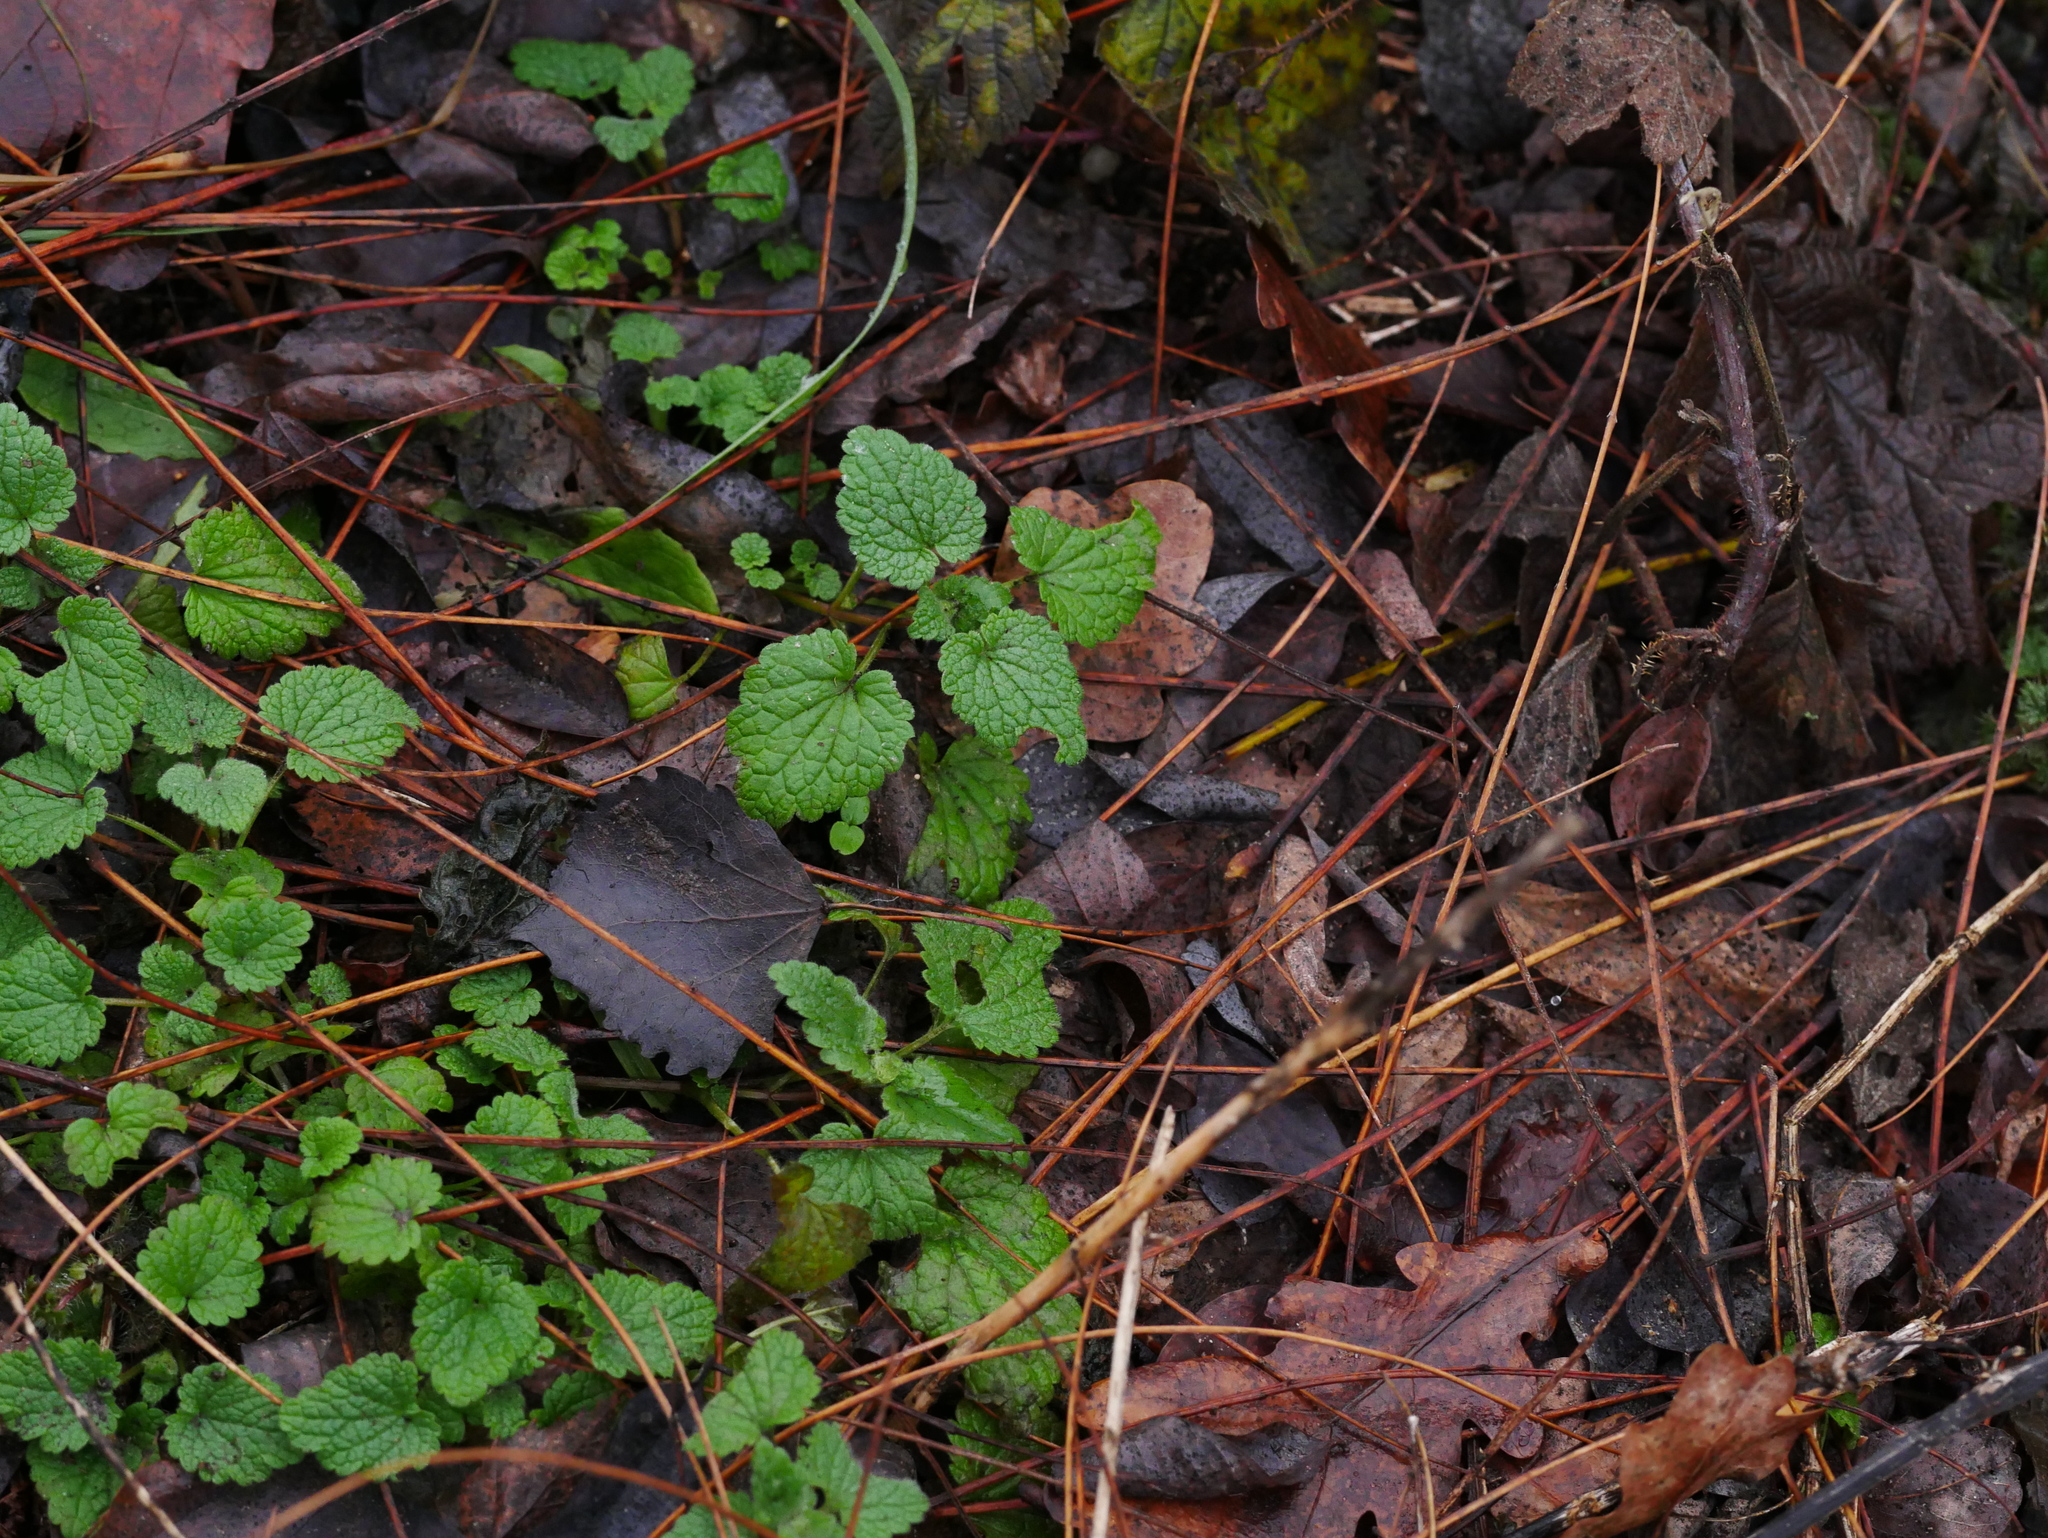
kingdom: Plantae
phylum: Tracheophyta
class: Magnoliopsida
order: Lamiales
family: Lamiaceae
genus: Lamium
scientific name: Lamium purpureum
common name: Red dead-nettle
